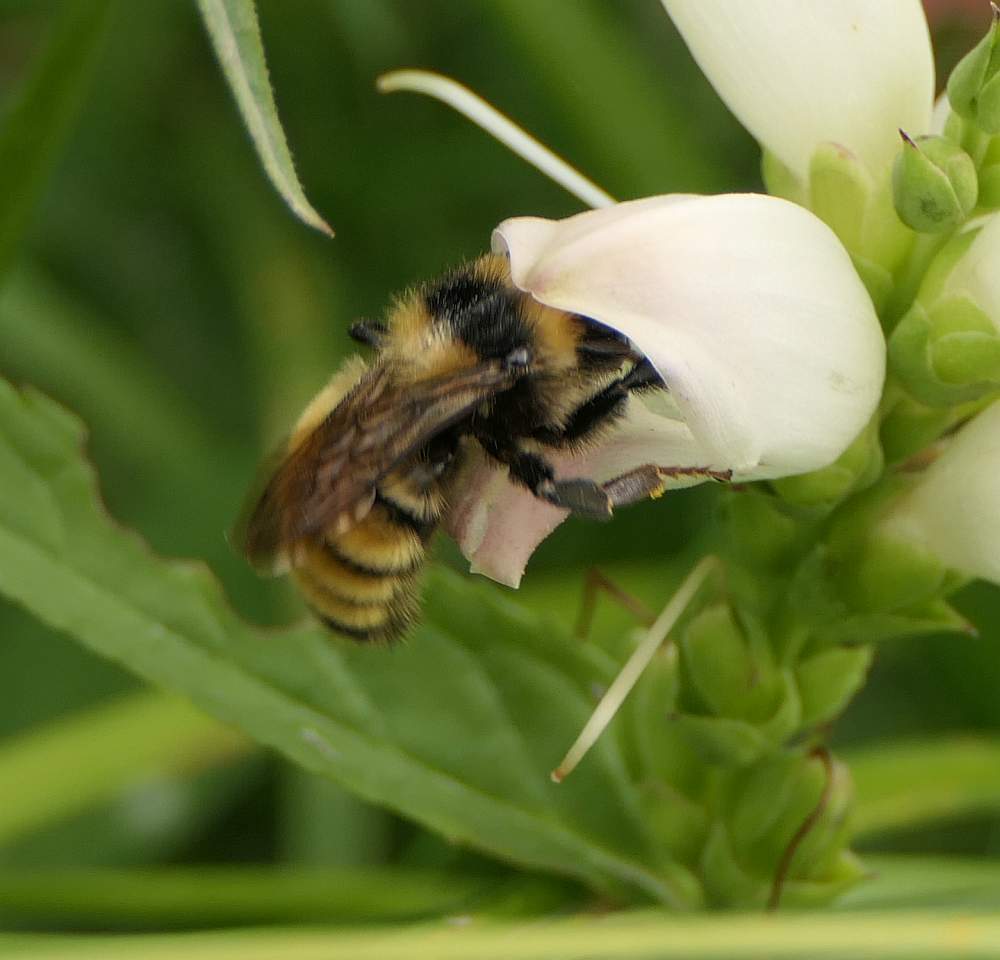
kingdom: Animalia
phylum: Arthropoda
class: Insecta
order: Hymenoptera
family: Apidae
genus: Bombus
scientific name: Bombus borealis
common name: Northern amber bumble bee
